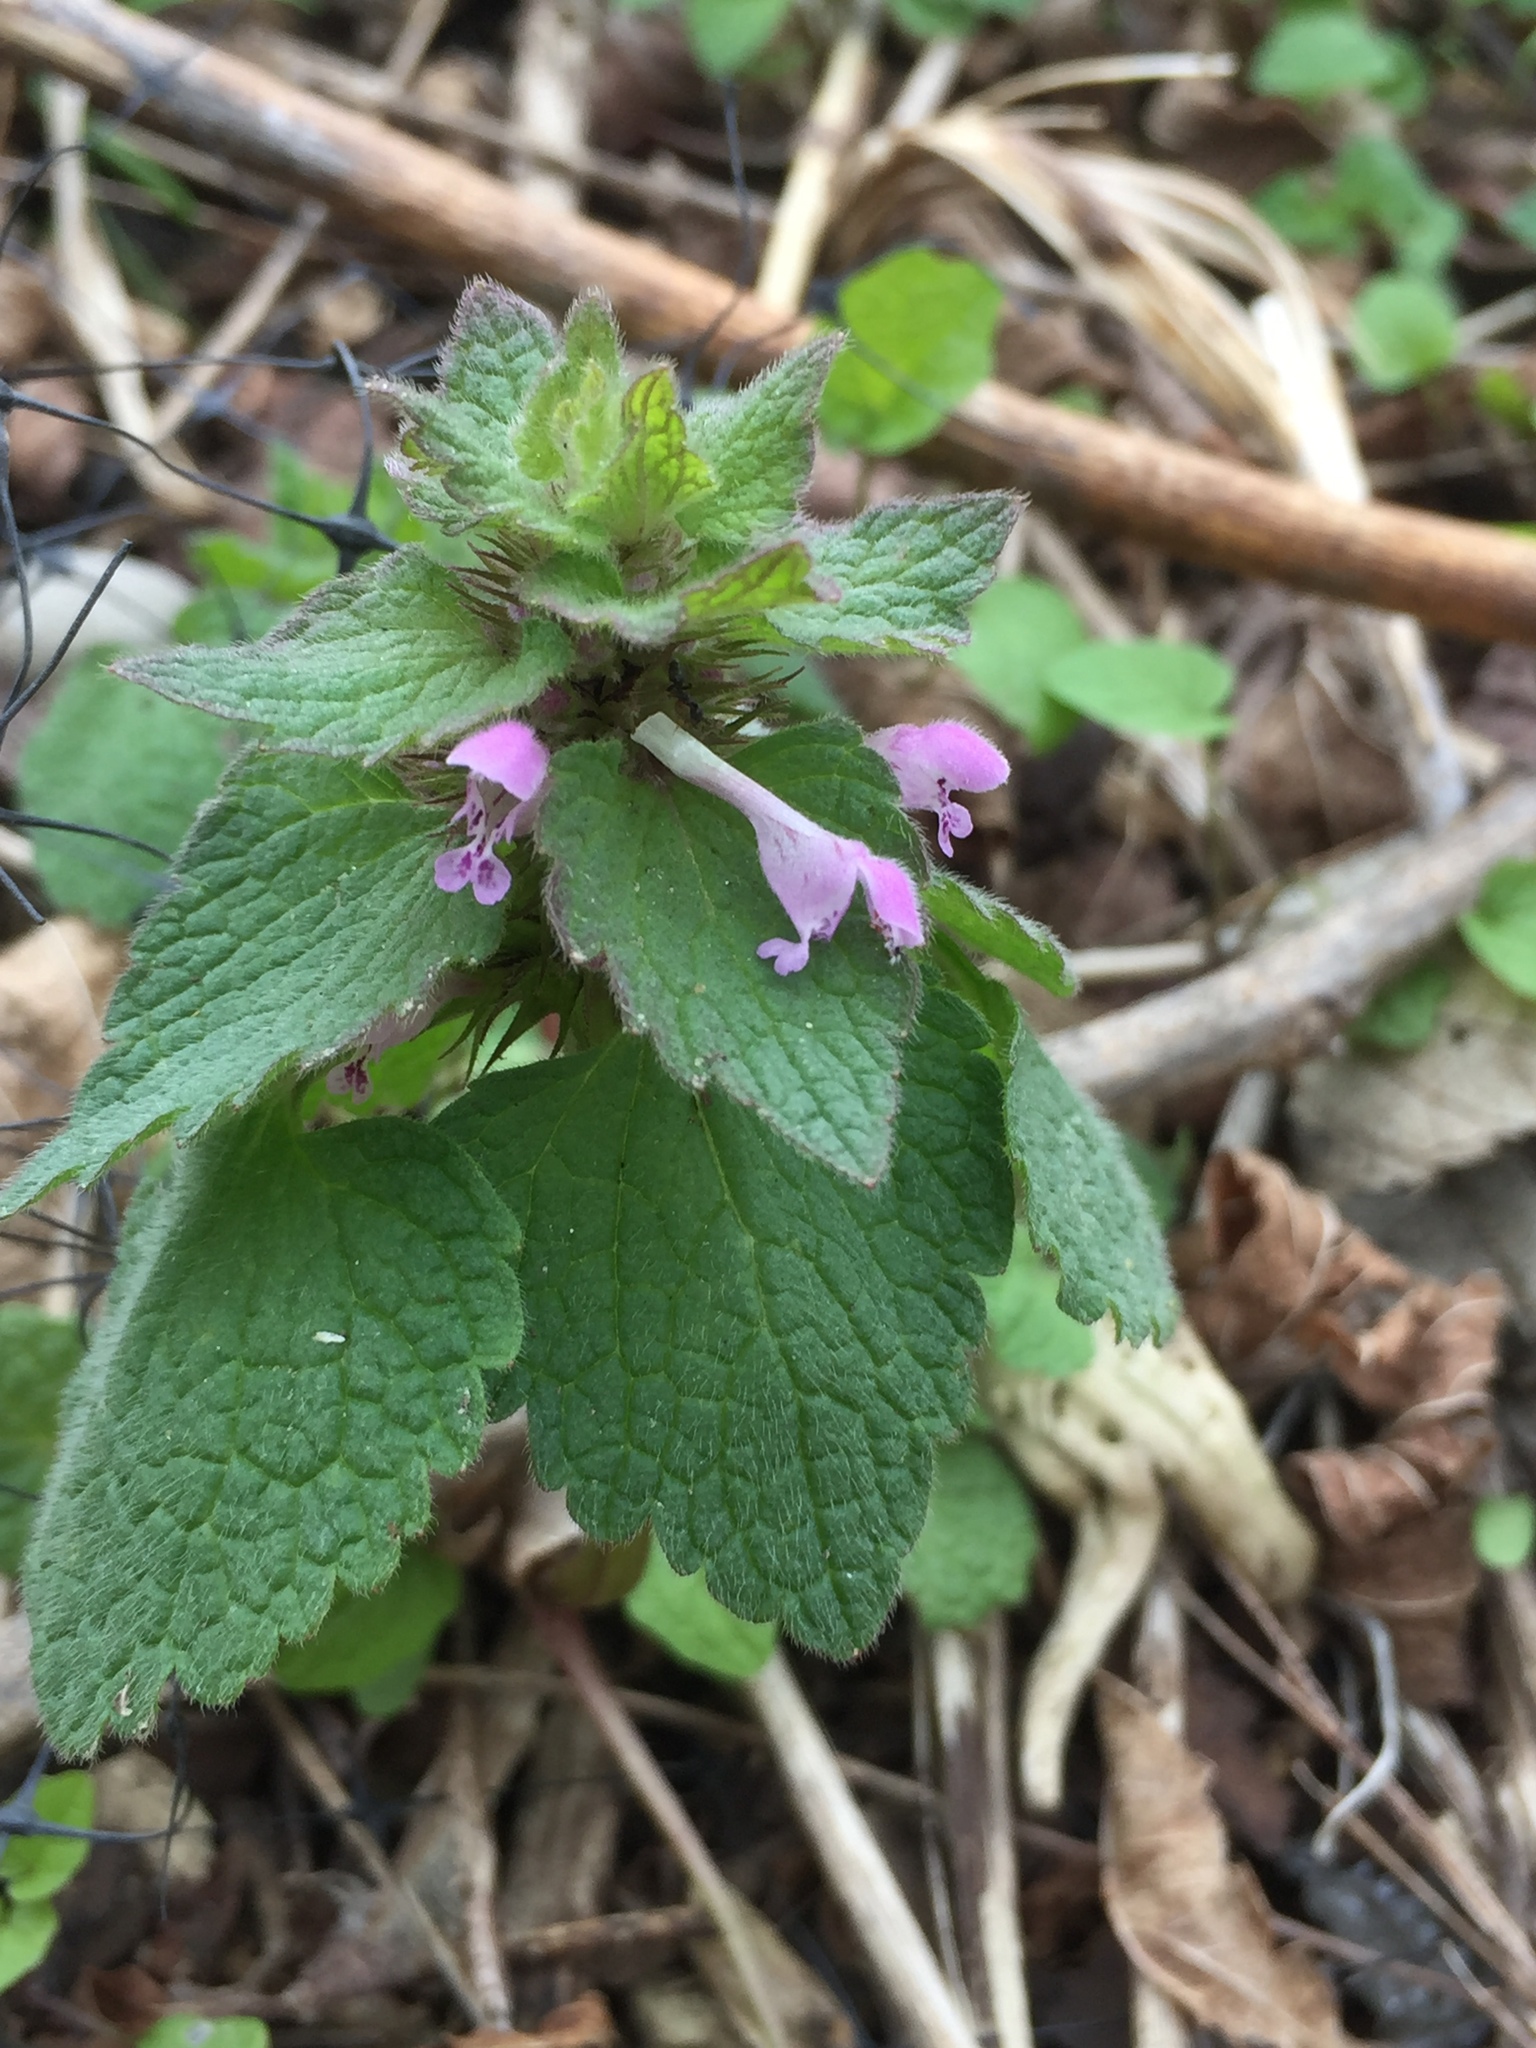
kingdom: Plantae
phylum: Tracheophyta
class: Magnoliopsida
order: Lamiales
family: Lamiaceae
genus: Lamium
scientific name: Lamium purpureum
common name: Red dead-nettle
